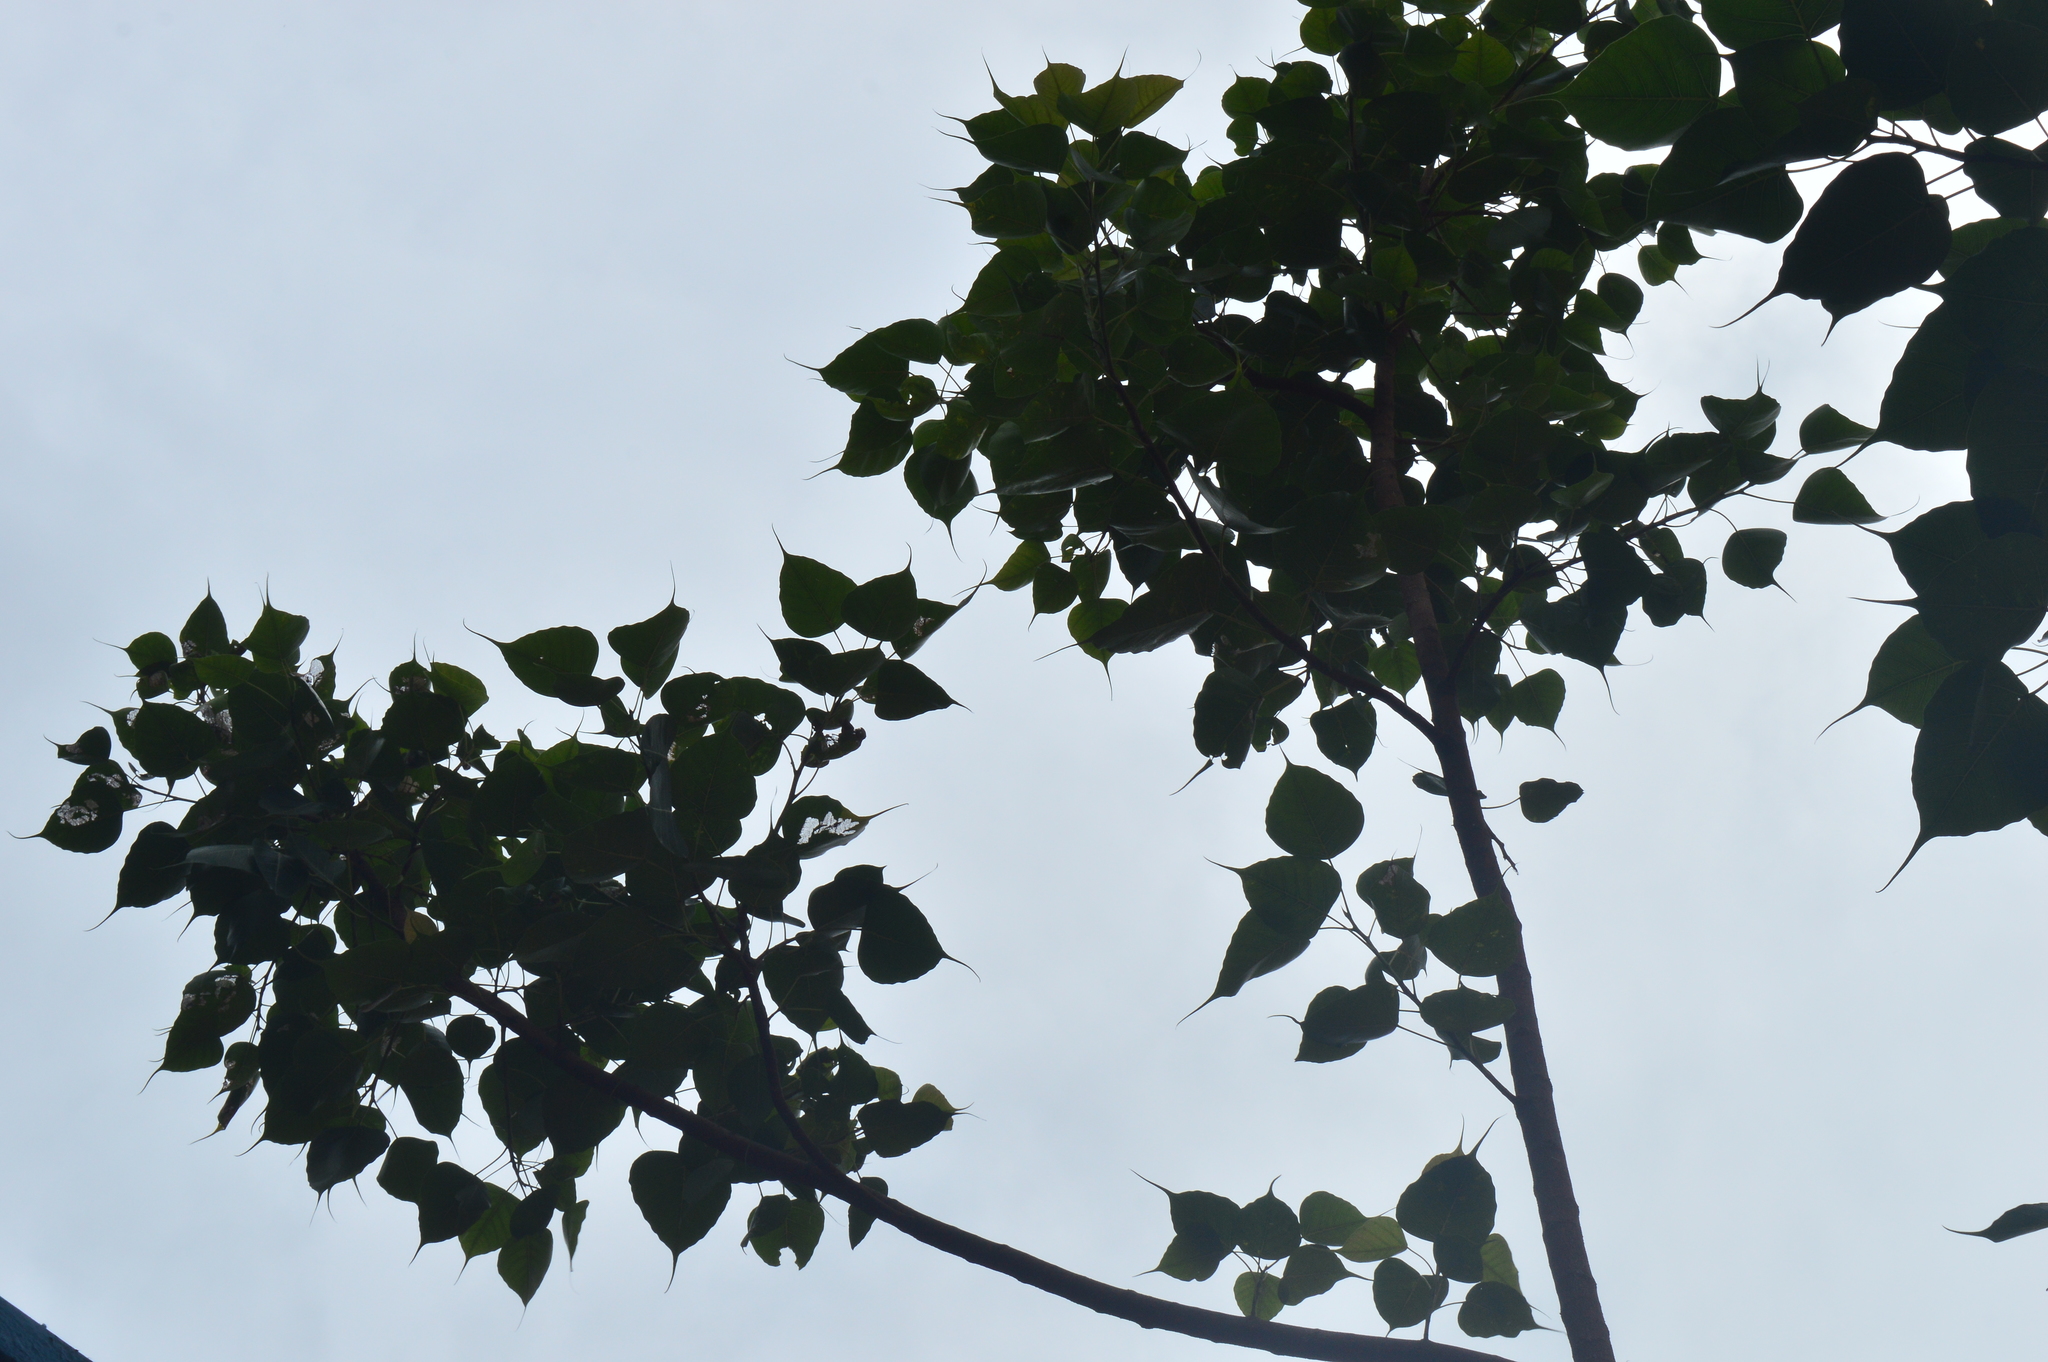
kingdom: Plantae
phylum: Tracheophyta
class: Magnoliopsida
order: Rosales
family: Moraceae
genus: Ficus
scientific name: Ficus religiosa
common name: Bodhi tree
